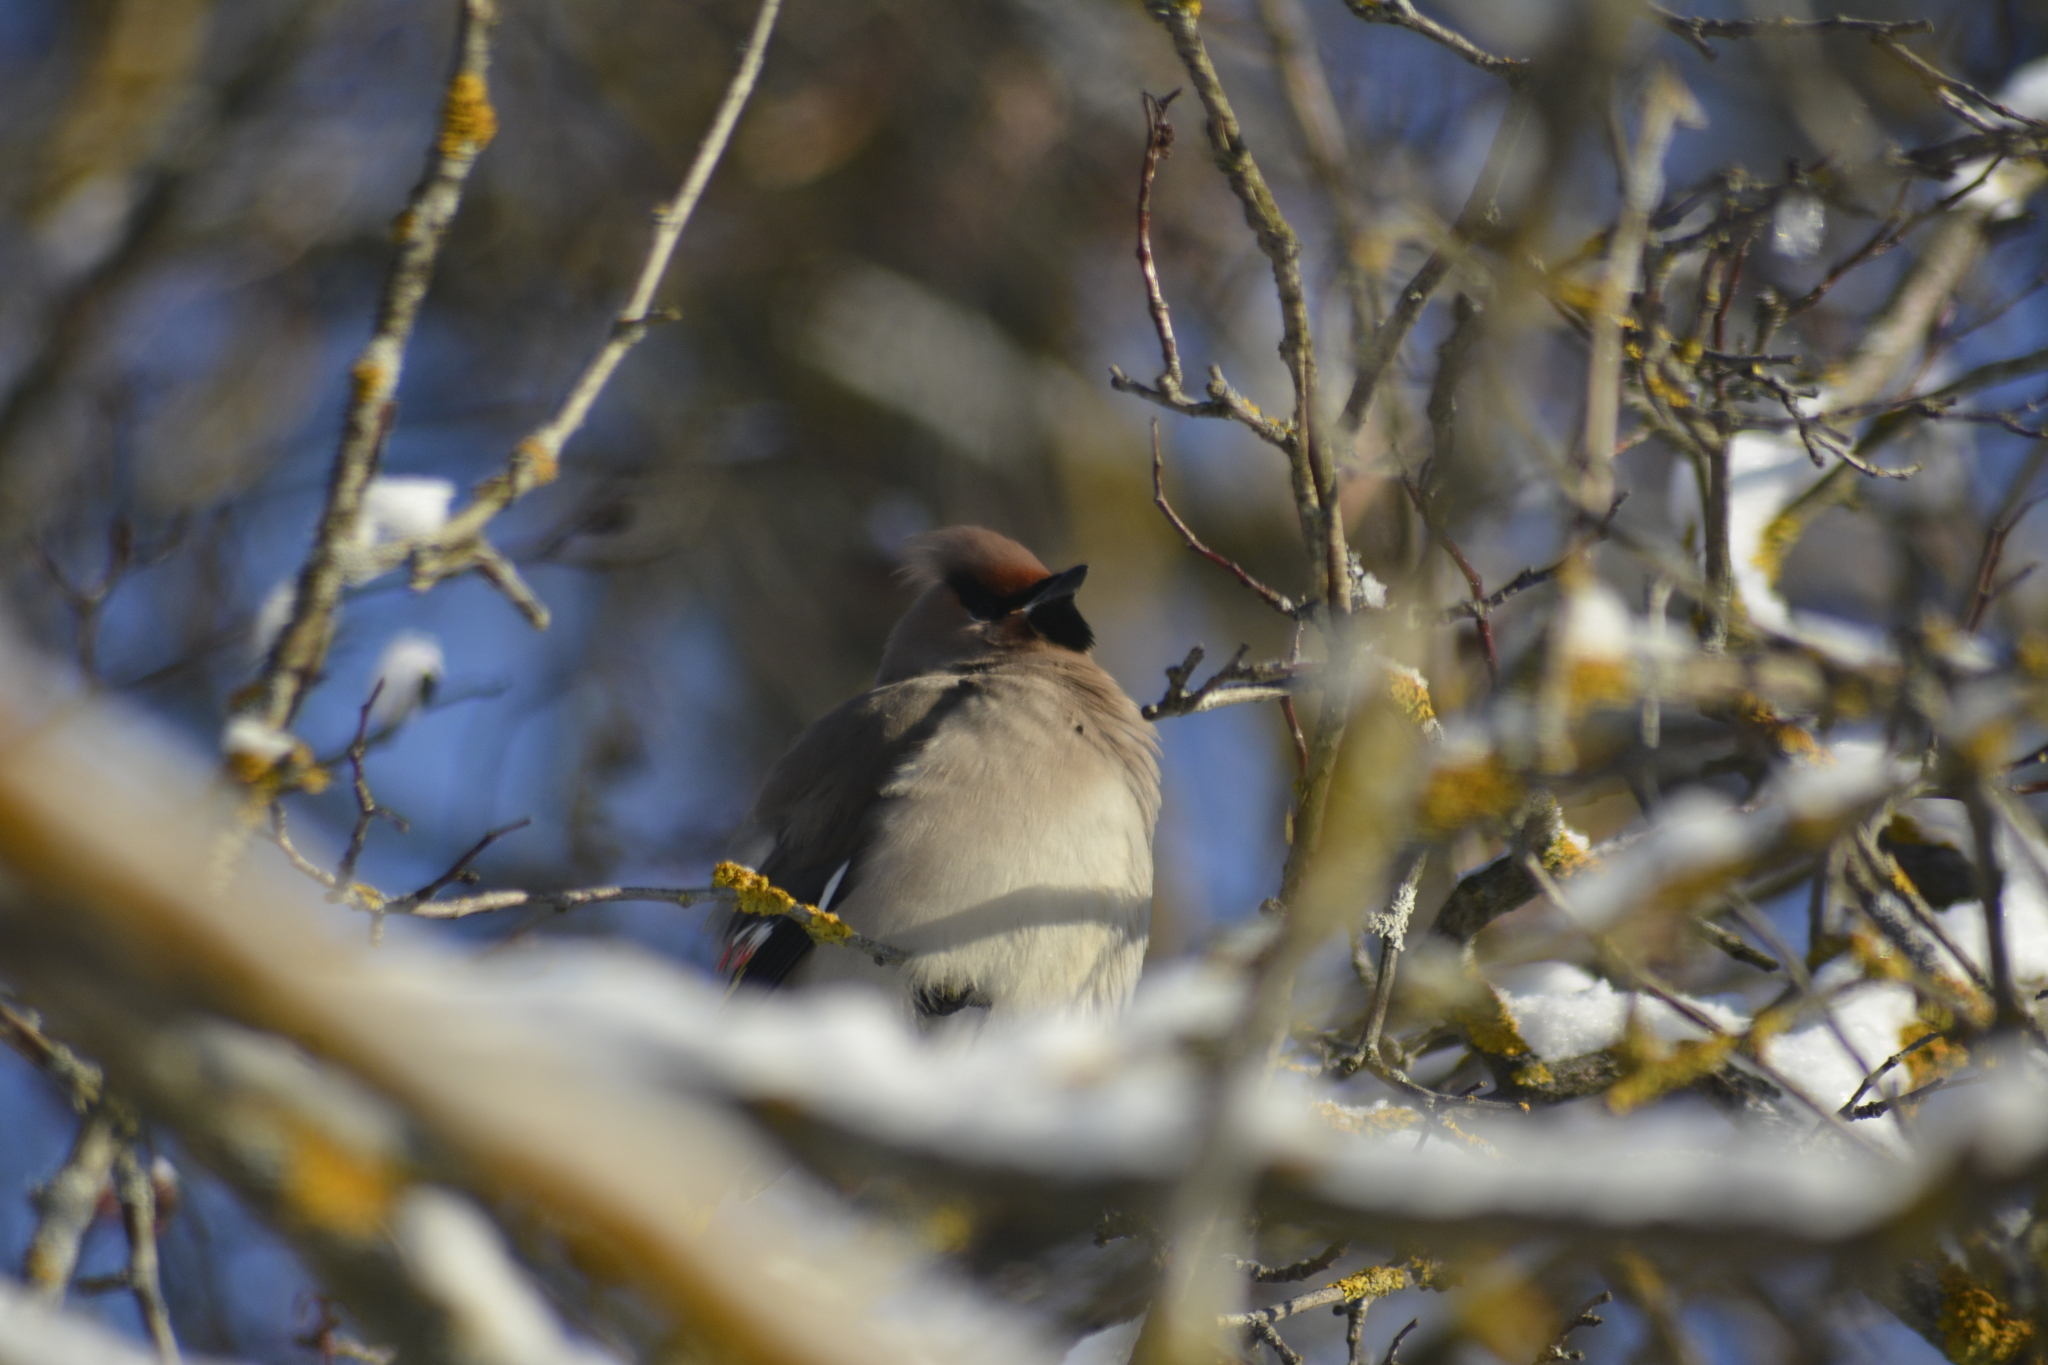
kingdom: Animalia
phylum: Chordata
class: Aves
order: Passeriformes
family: Bombycillidae
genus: Bombycilla
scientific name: Bombycilla garrulus
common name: Bohemian waxwing
